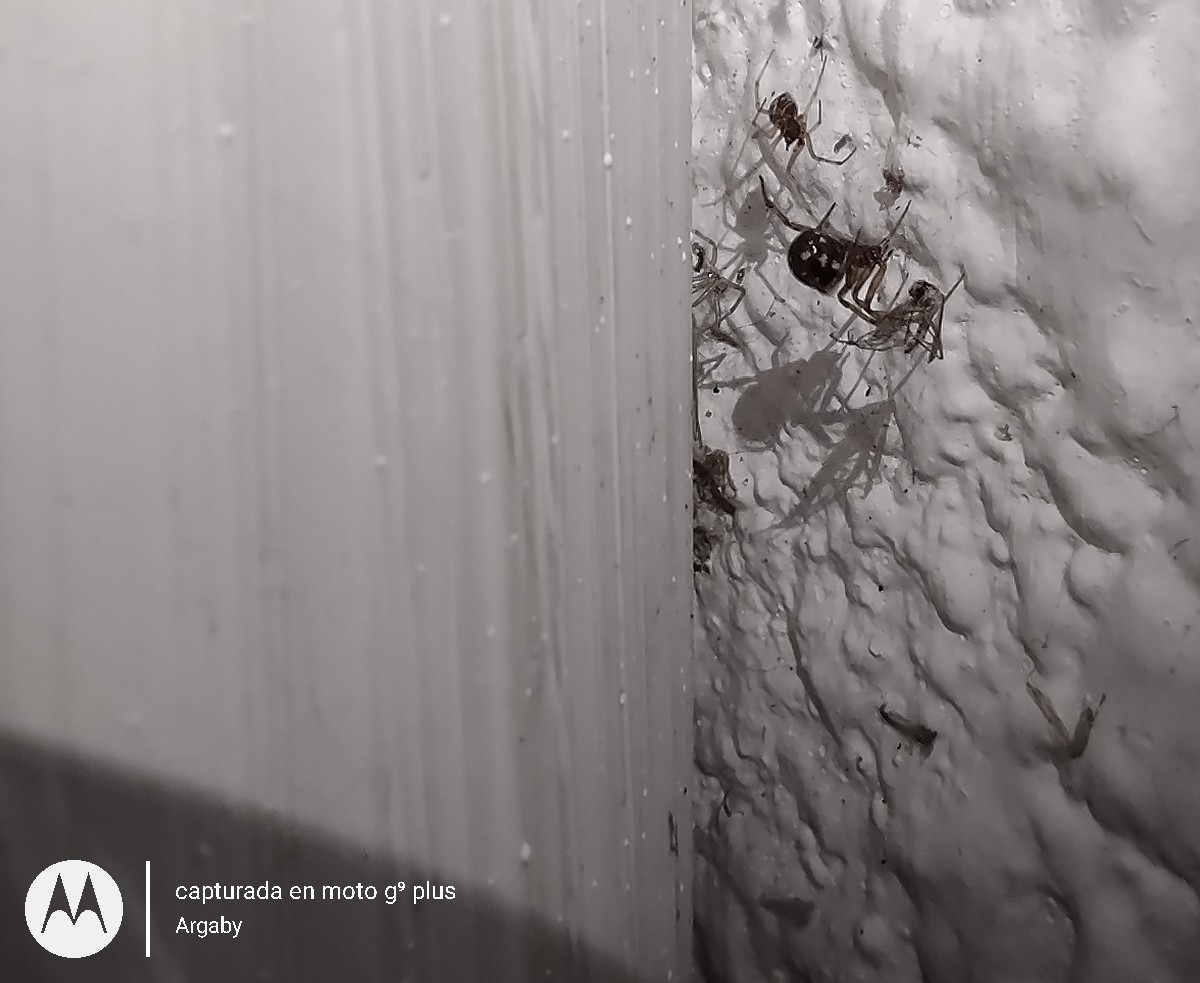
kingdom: Animalia
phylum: Arthropoda
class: Arachnida
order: Araneae
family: Theridiidae
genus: Steatoda
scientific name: Steatoda triangulosa
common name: Triangulate bud spider
